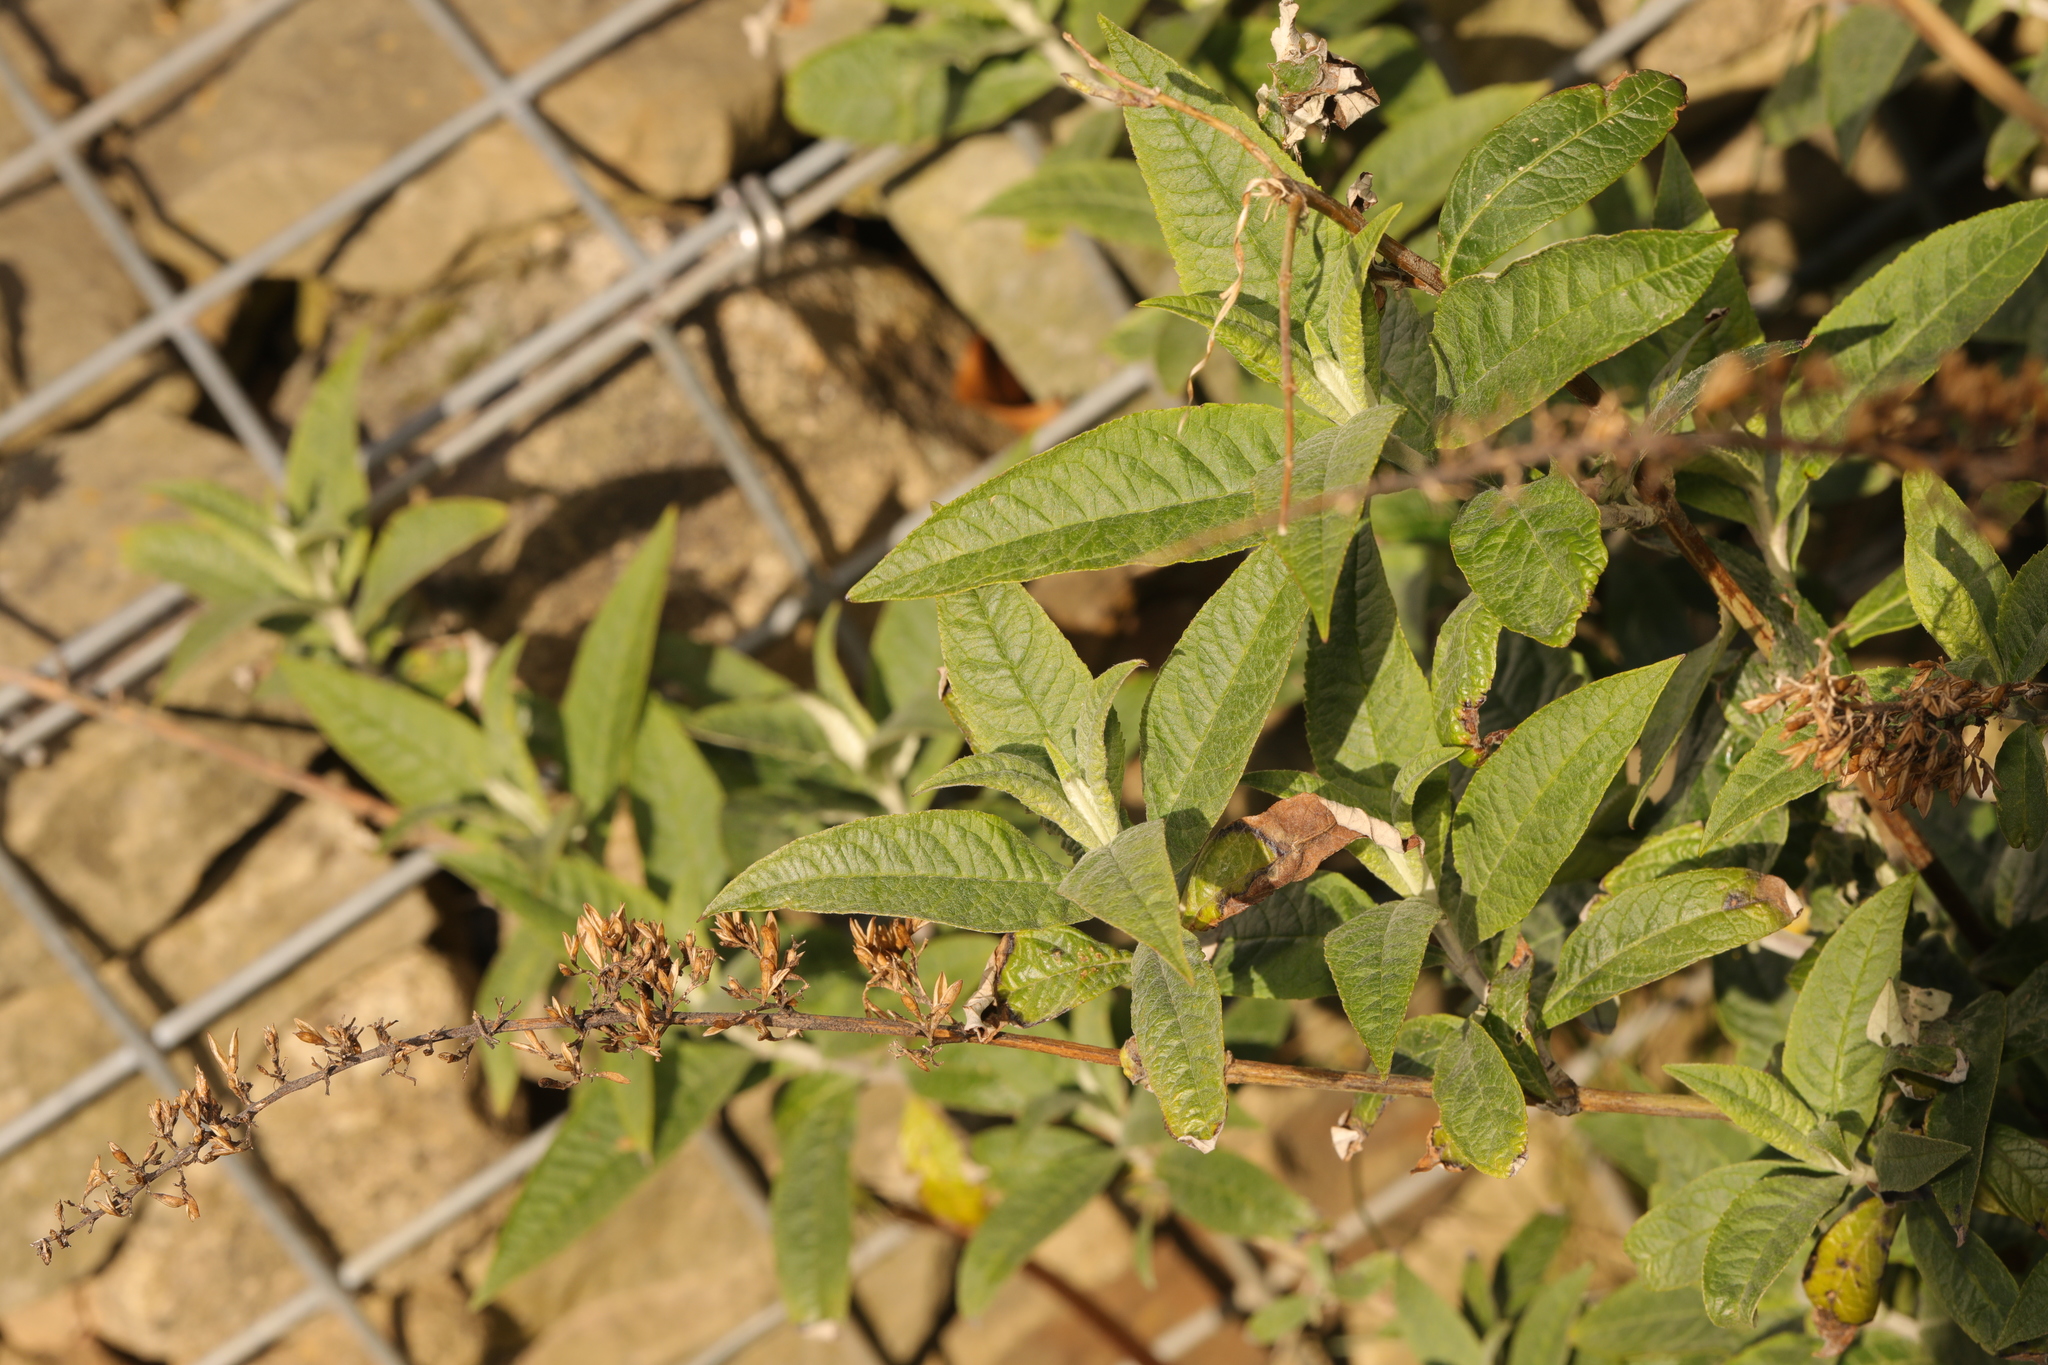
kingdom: Plantae
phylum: Tracheophyta
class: Magnoliopsida
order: Lamiales
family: Scrophulariaceae
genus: Buddleja
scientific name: Buddleja davidii
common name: Butterfly-bush
